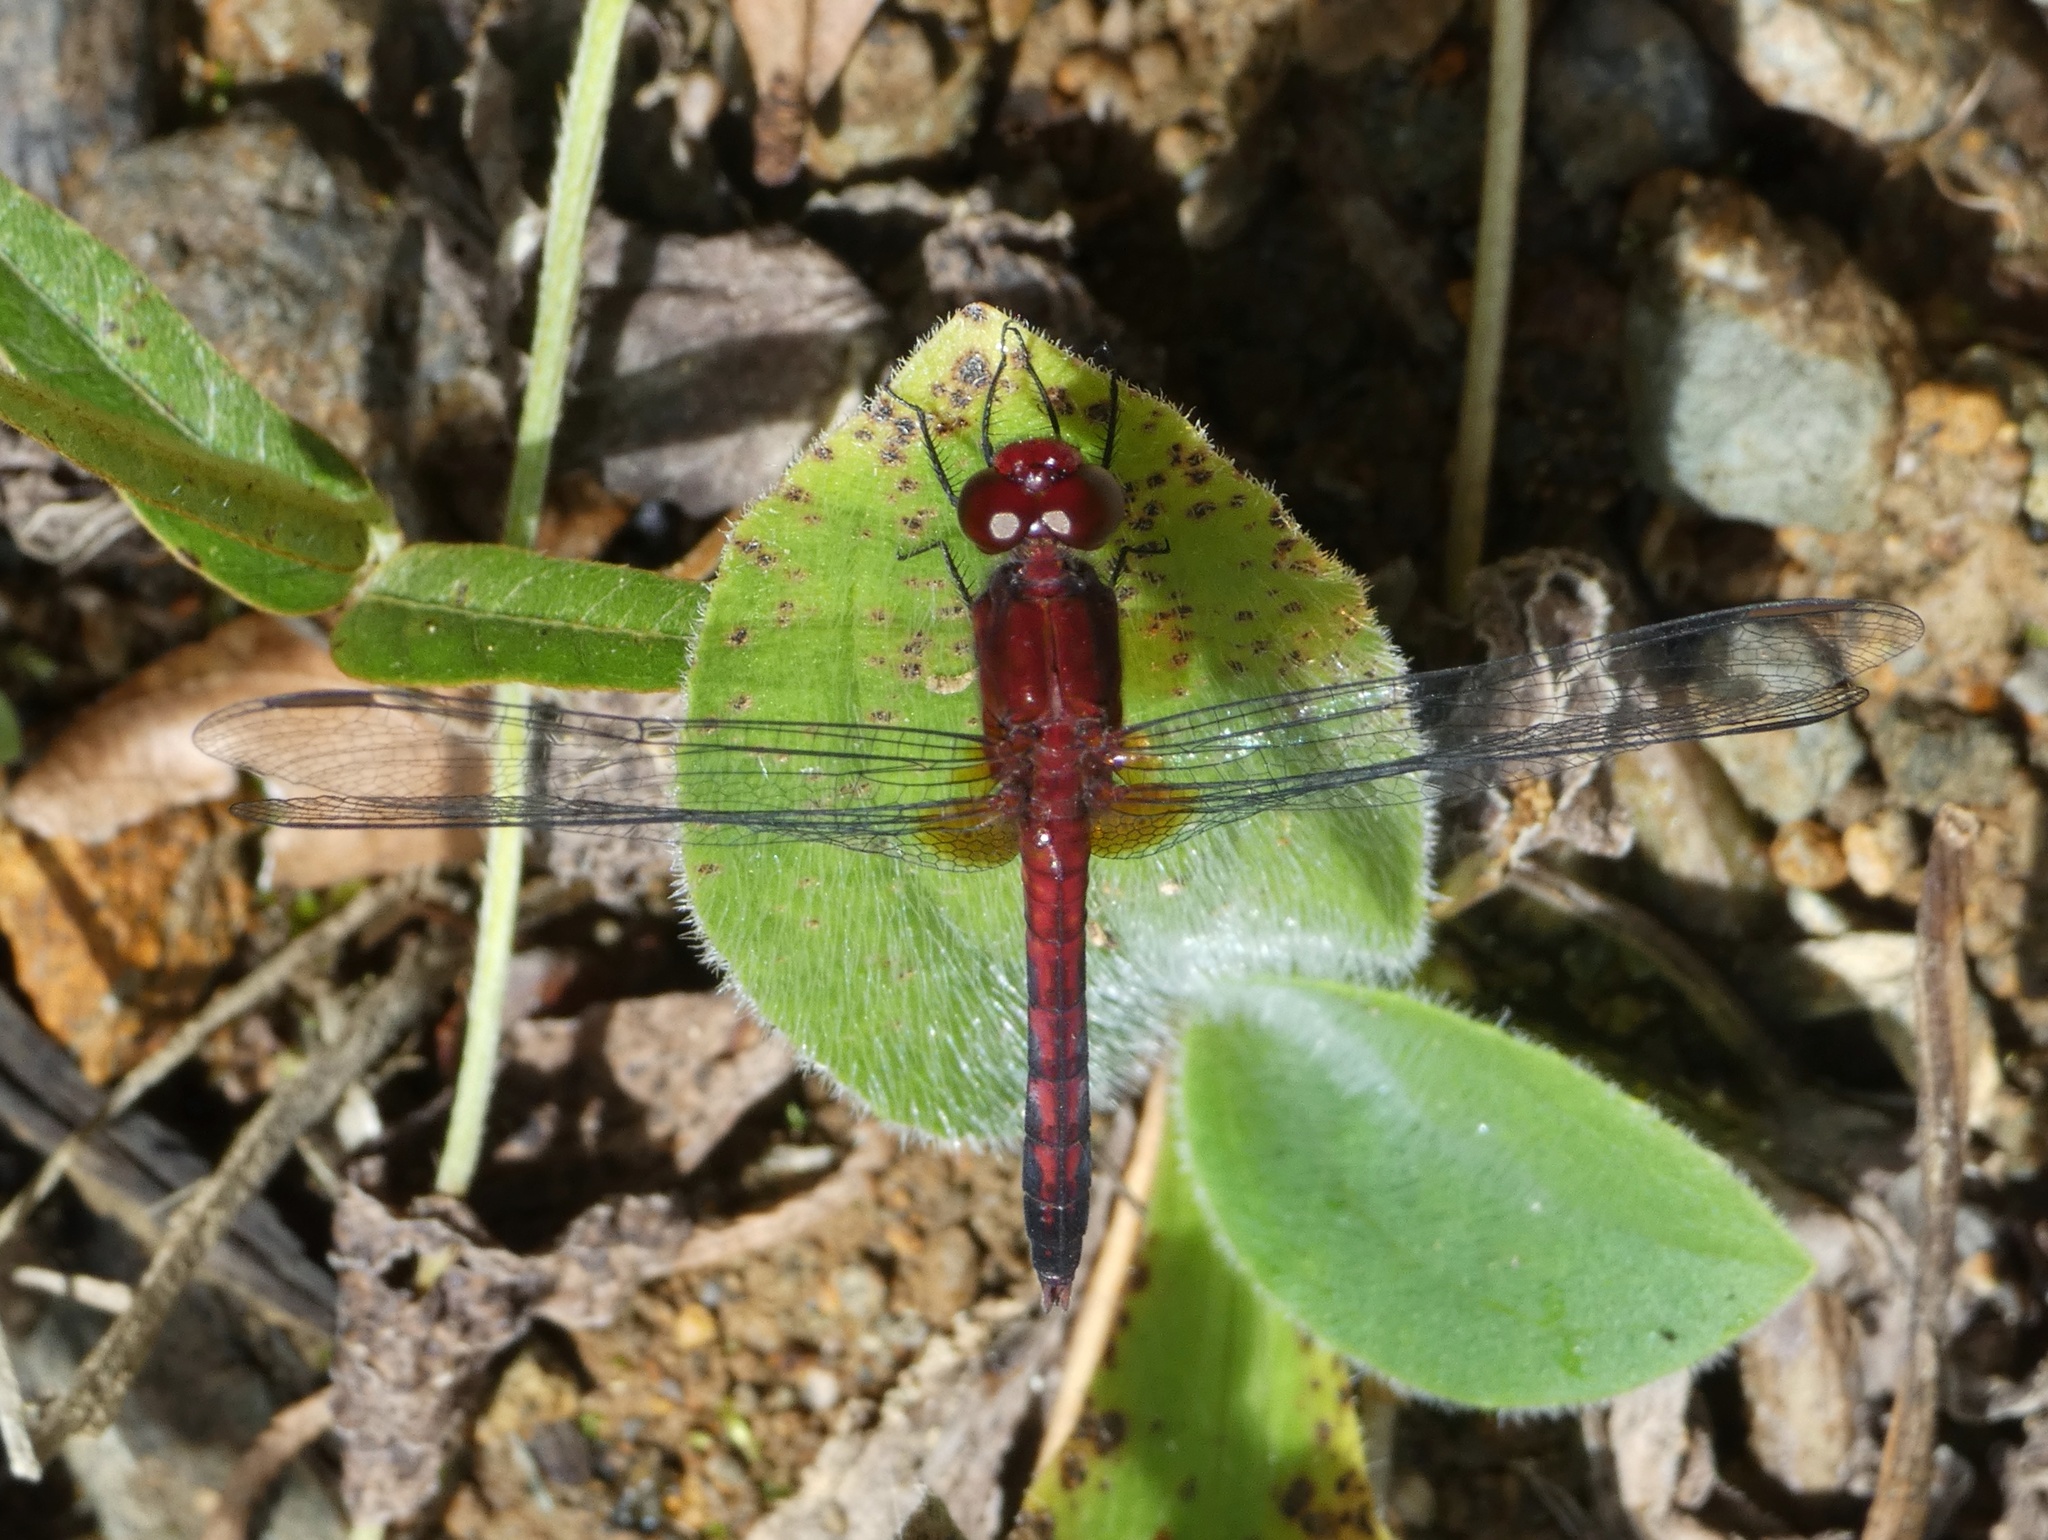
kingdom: Animalia
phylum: Arthropoda
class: Insecta
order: Odonata
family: Libellulidae
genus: Erythrodiplax
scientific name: Erythrodiplax fusca
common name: Red-faced dragonlet
